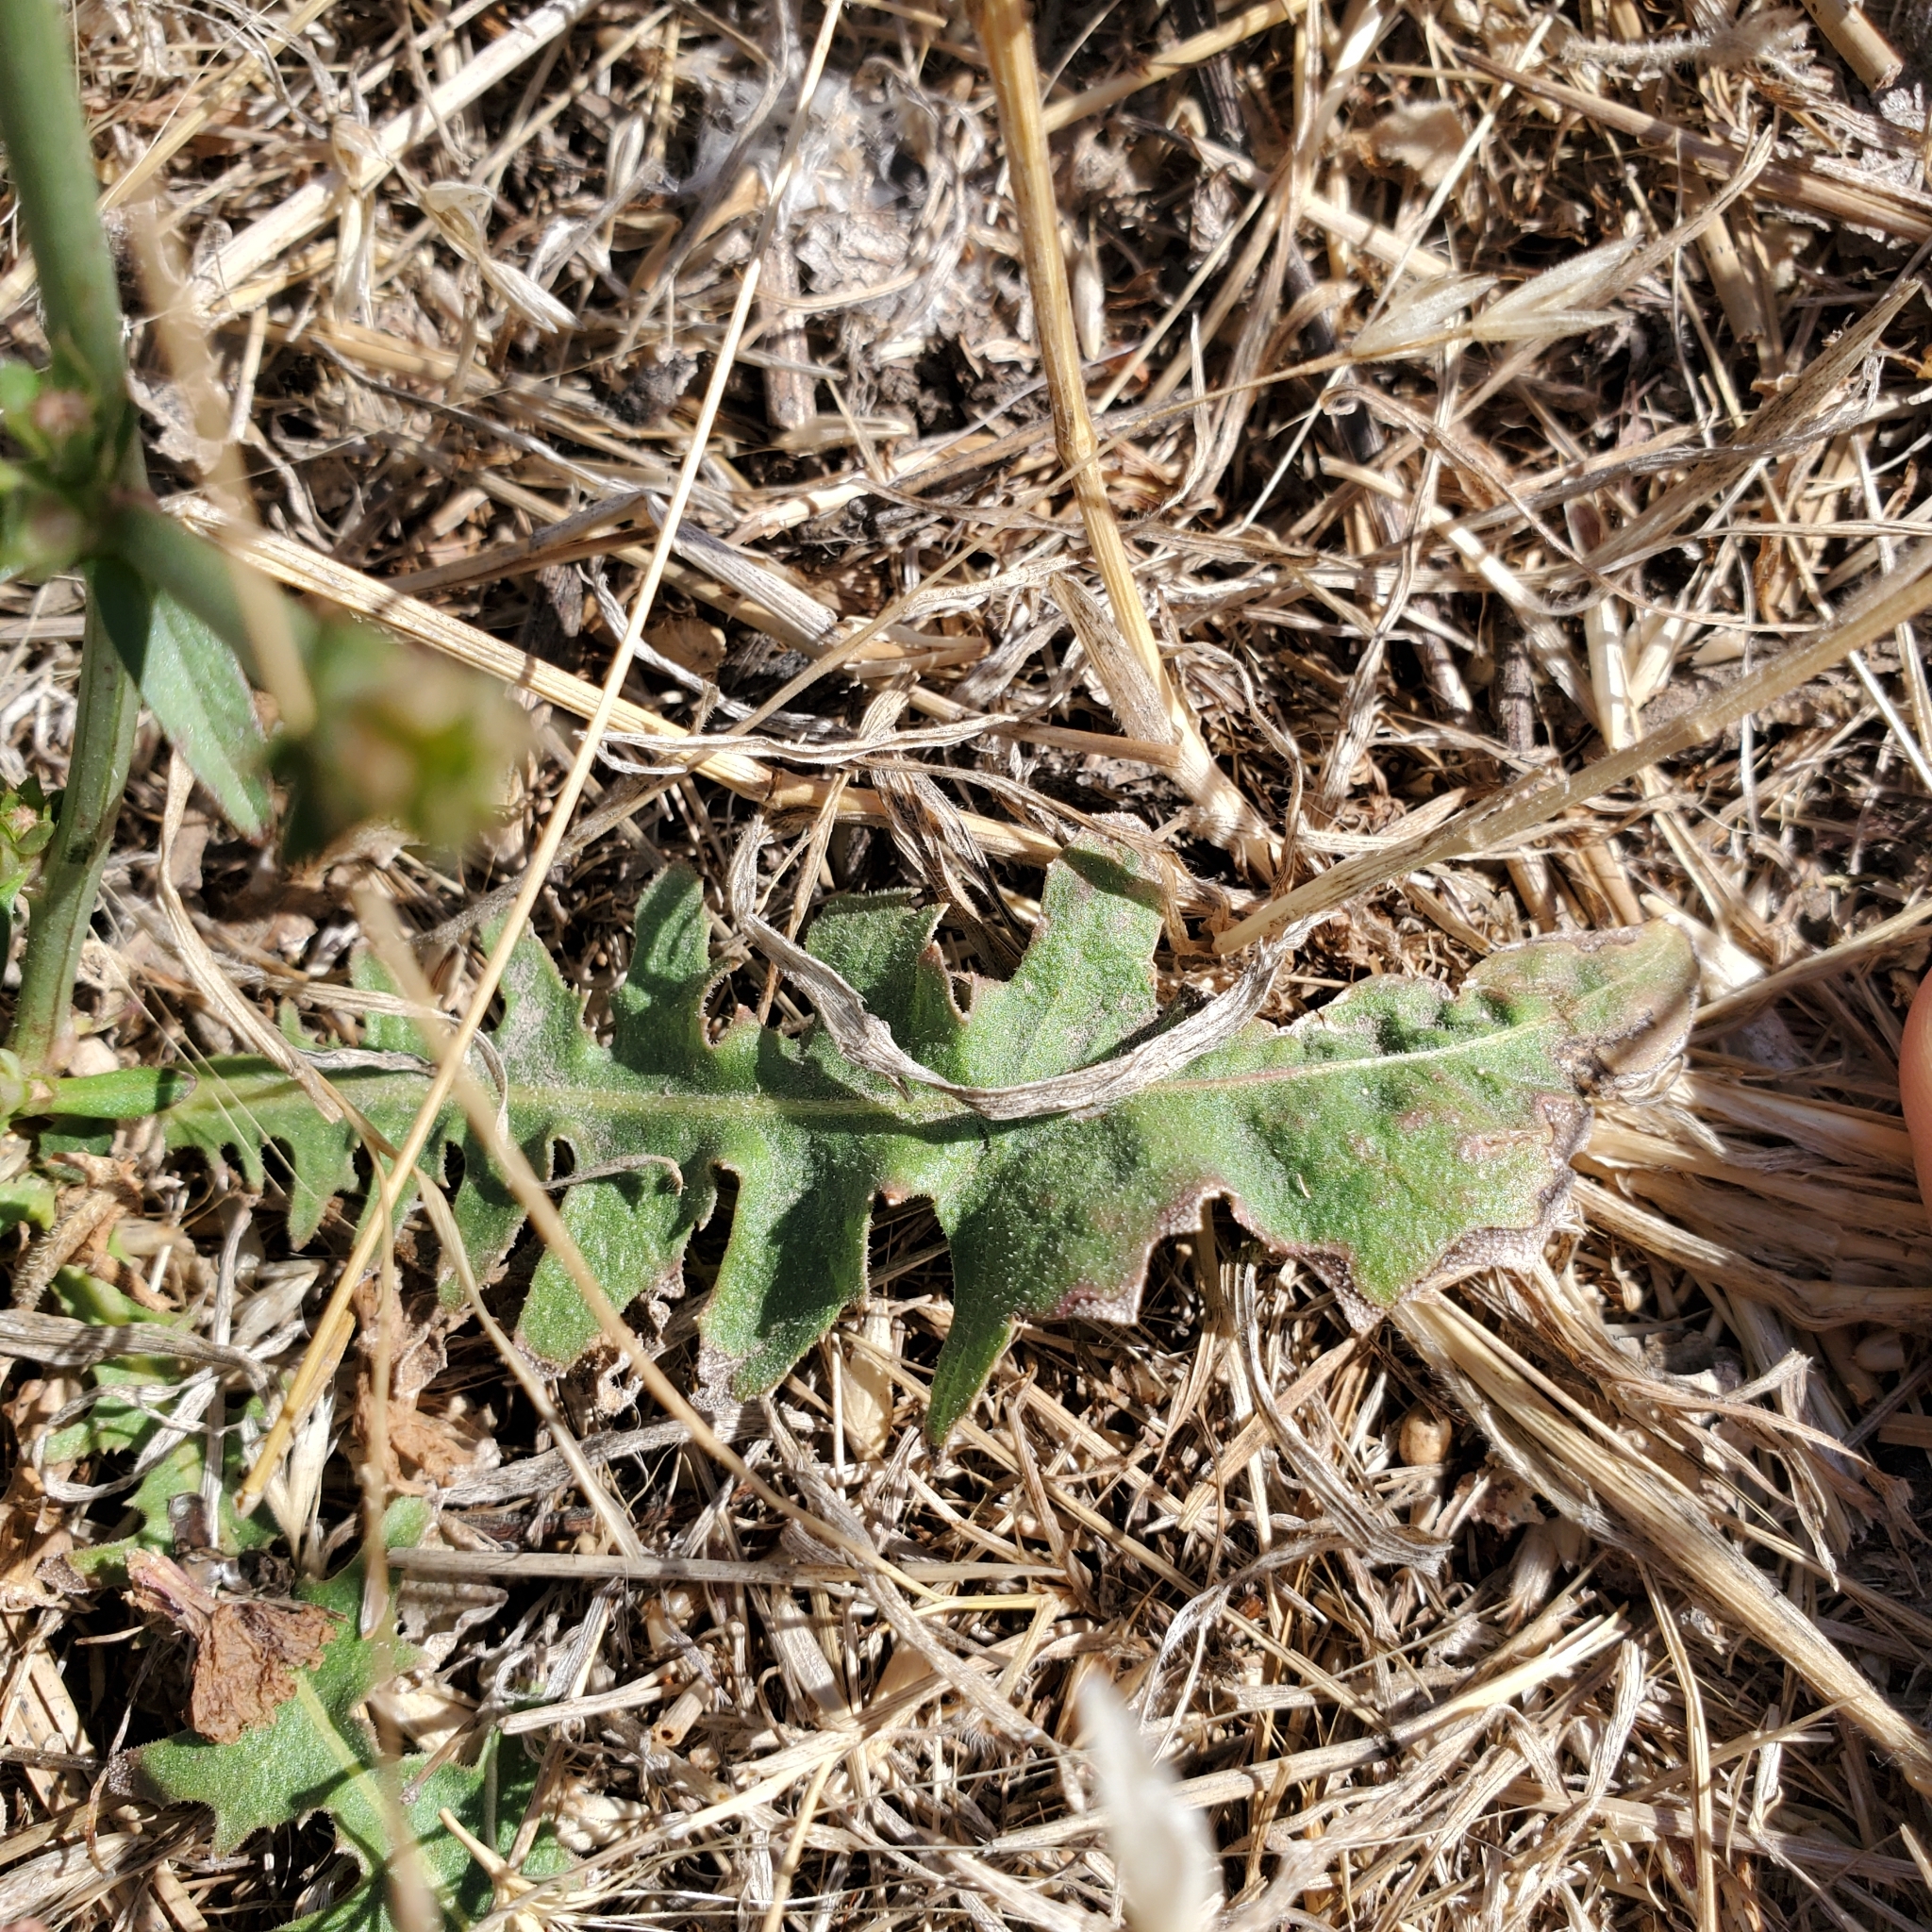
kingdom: Plantae
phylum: Tracheophyta
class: Magnoliopsida
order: Asterales
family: Asteraceae
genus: Cichorium
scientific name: Cichorium intybus
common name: Chicory
